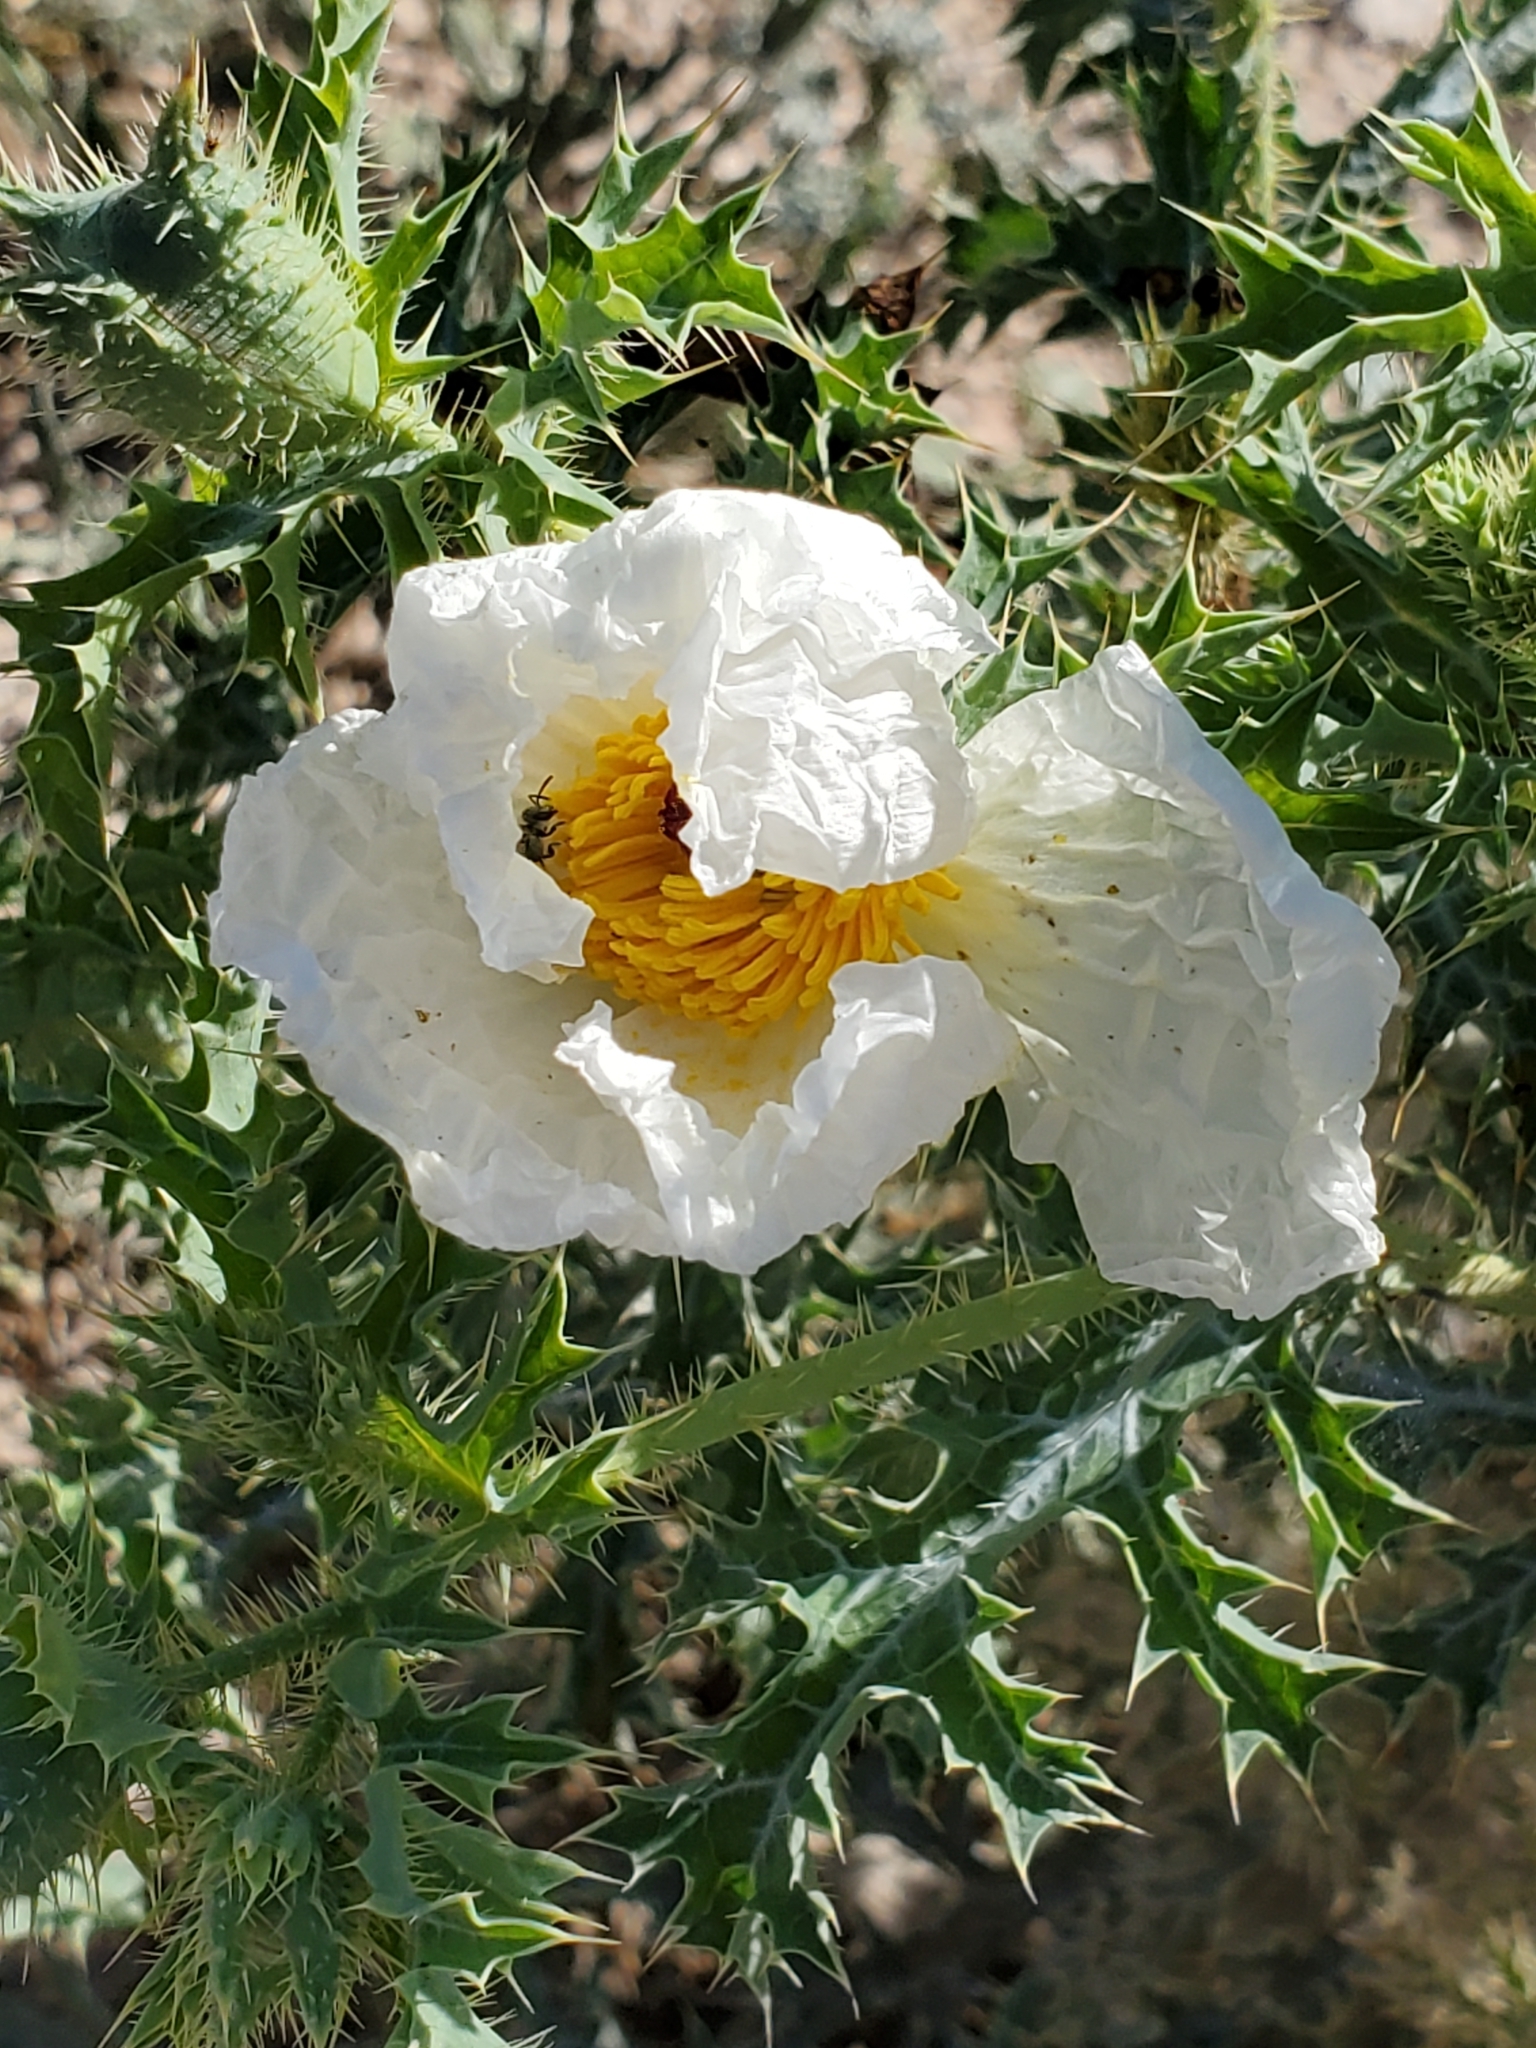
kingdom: Plantae
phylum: Tracheophyta
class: Magnoliopsida
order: Ranunculales
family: Papaveraceae
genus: Argemone
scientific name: Argemone albiflora
